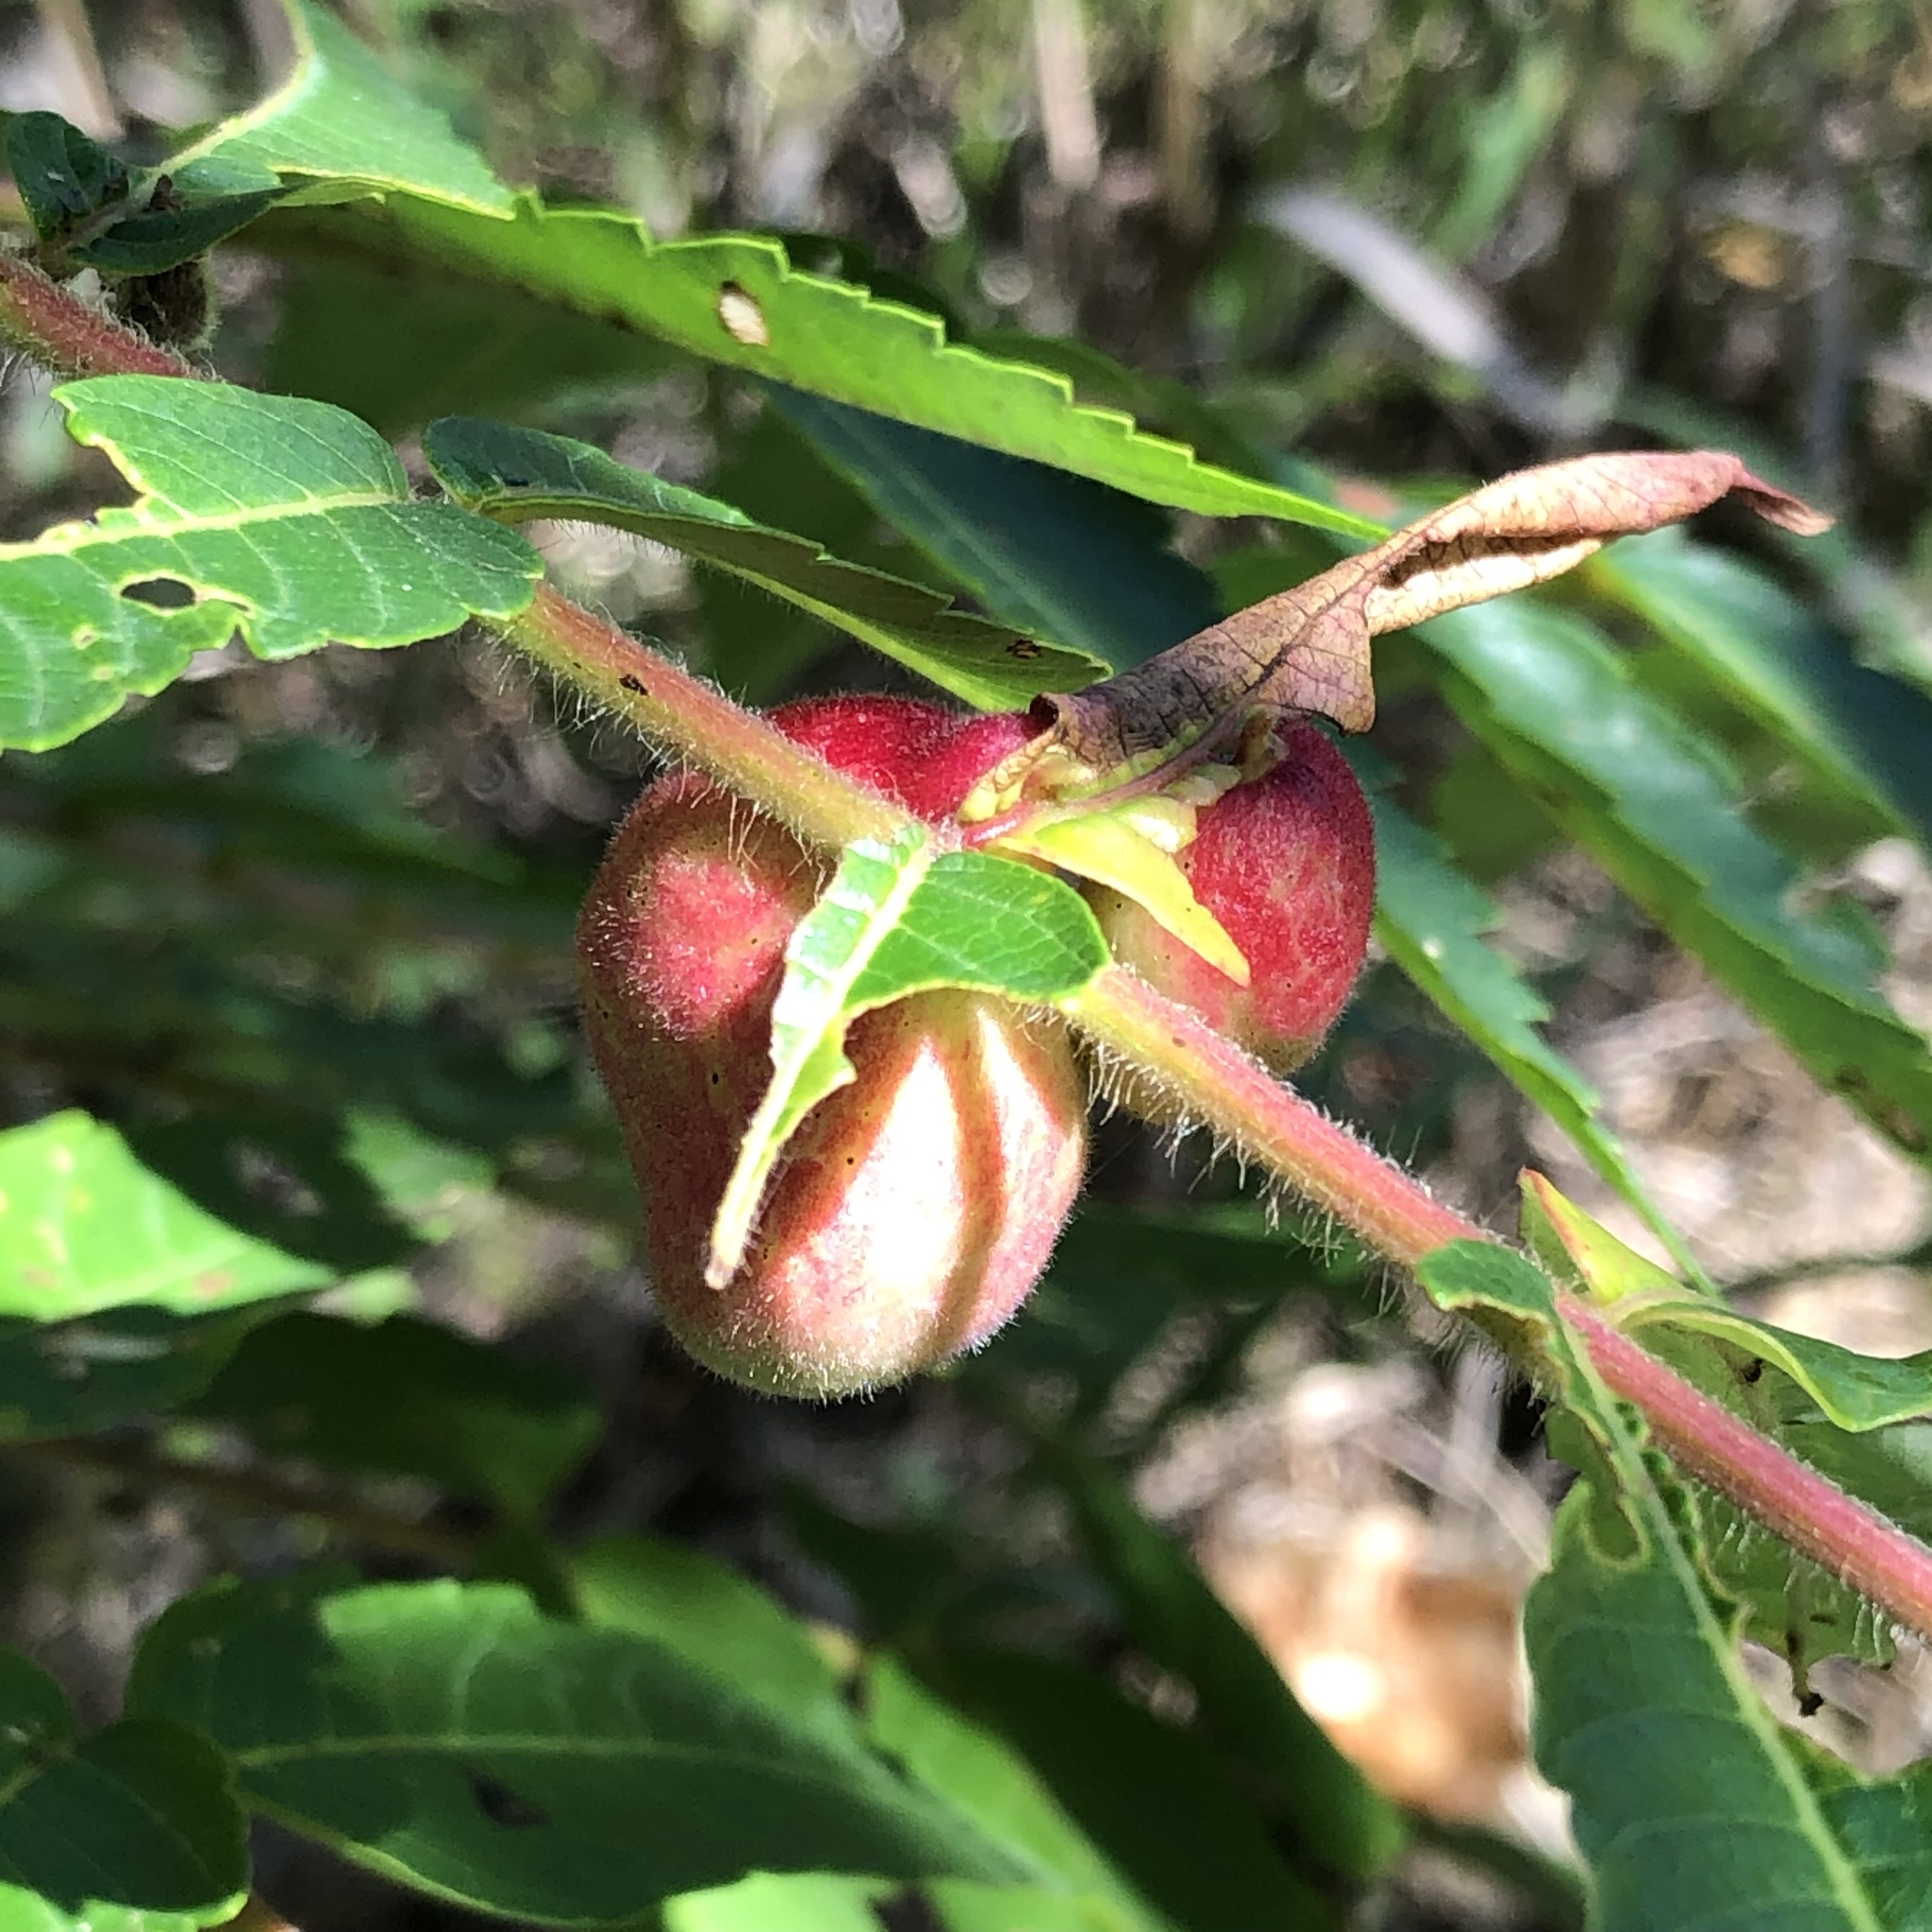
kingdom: Animalia
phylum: Arthropoda
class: Insecta
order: Hemiptera
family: Aphididae
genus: Melaphis
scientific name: Melaphis rhois
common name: Sumac gall aphid
